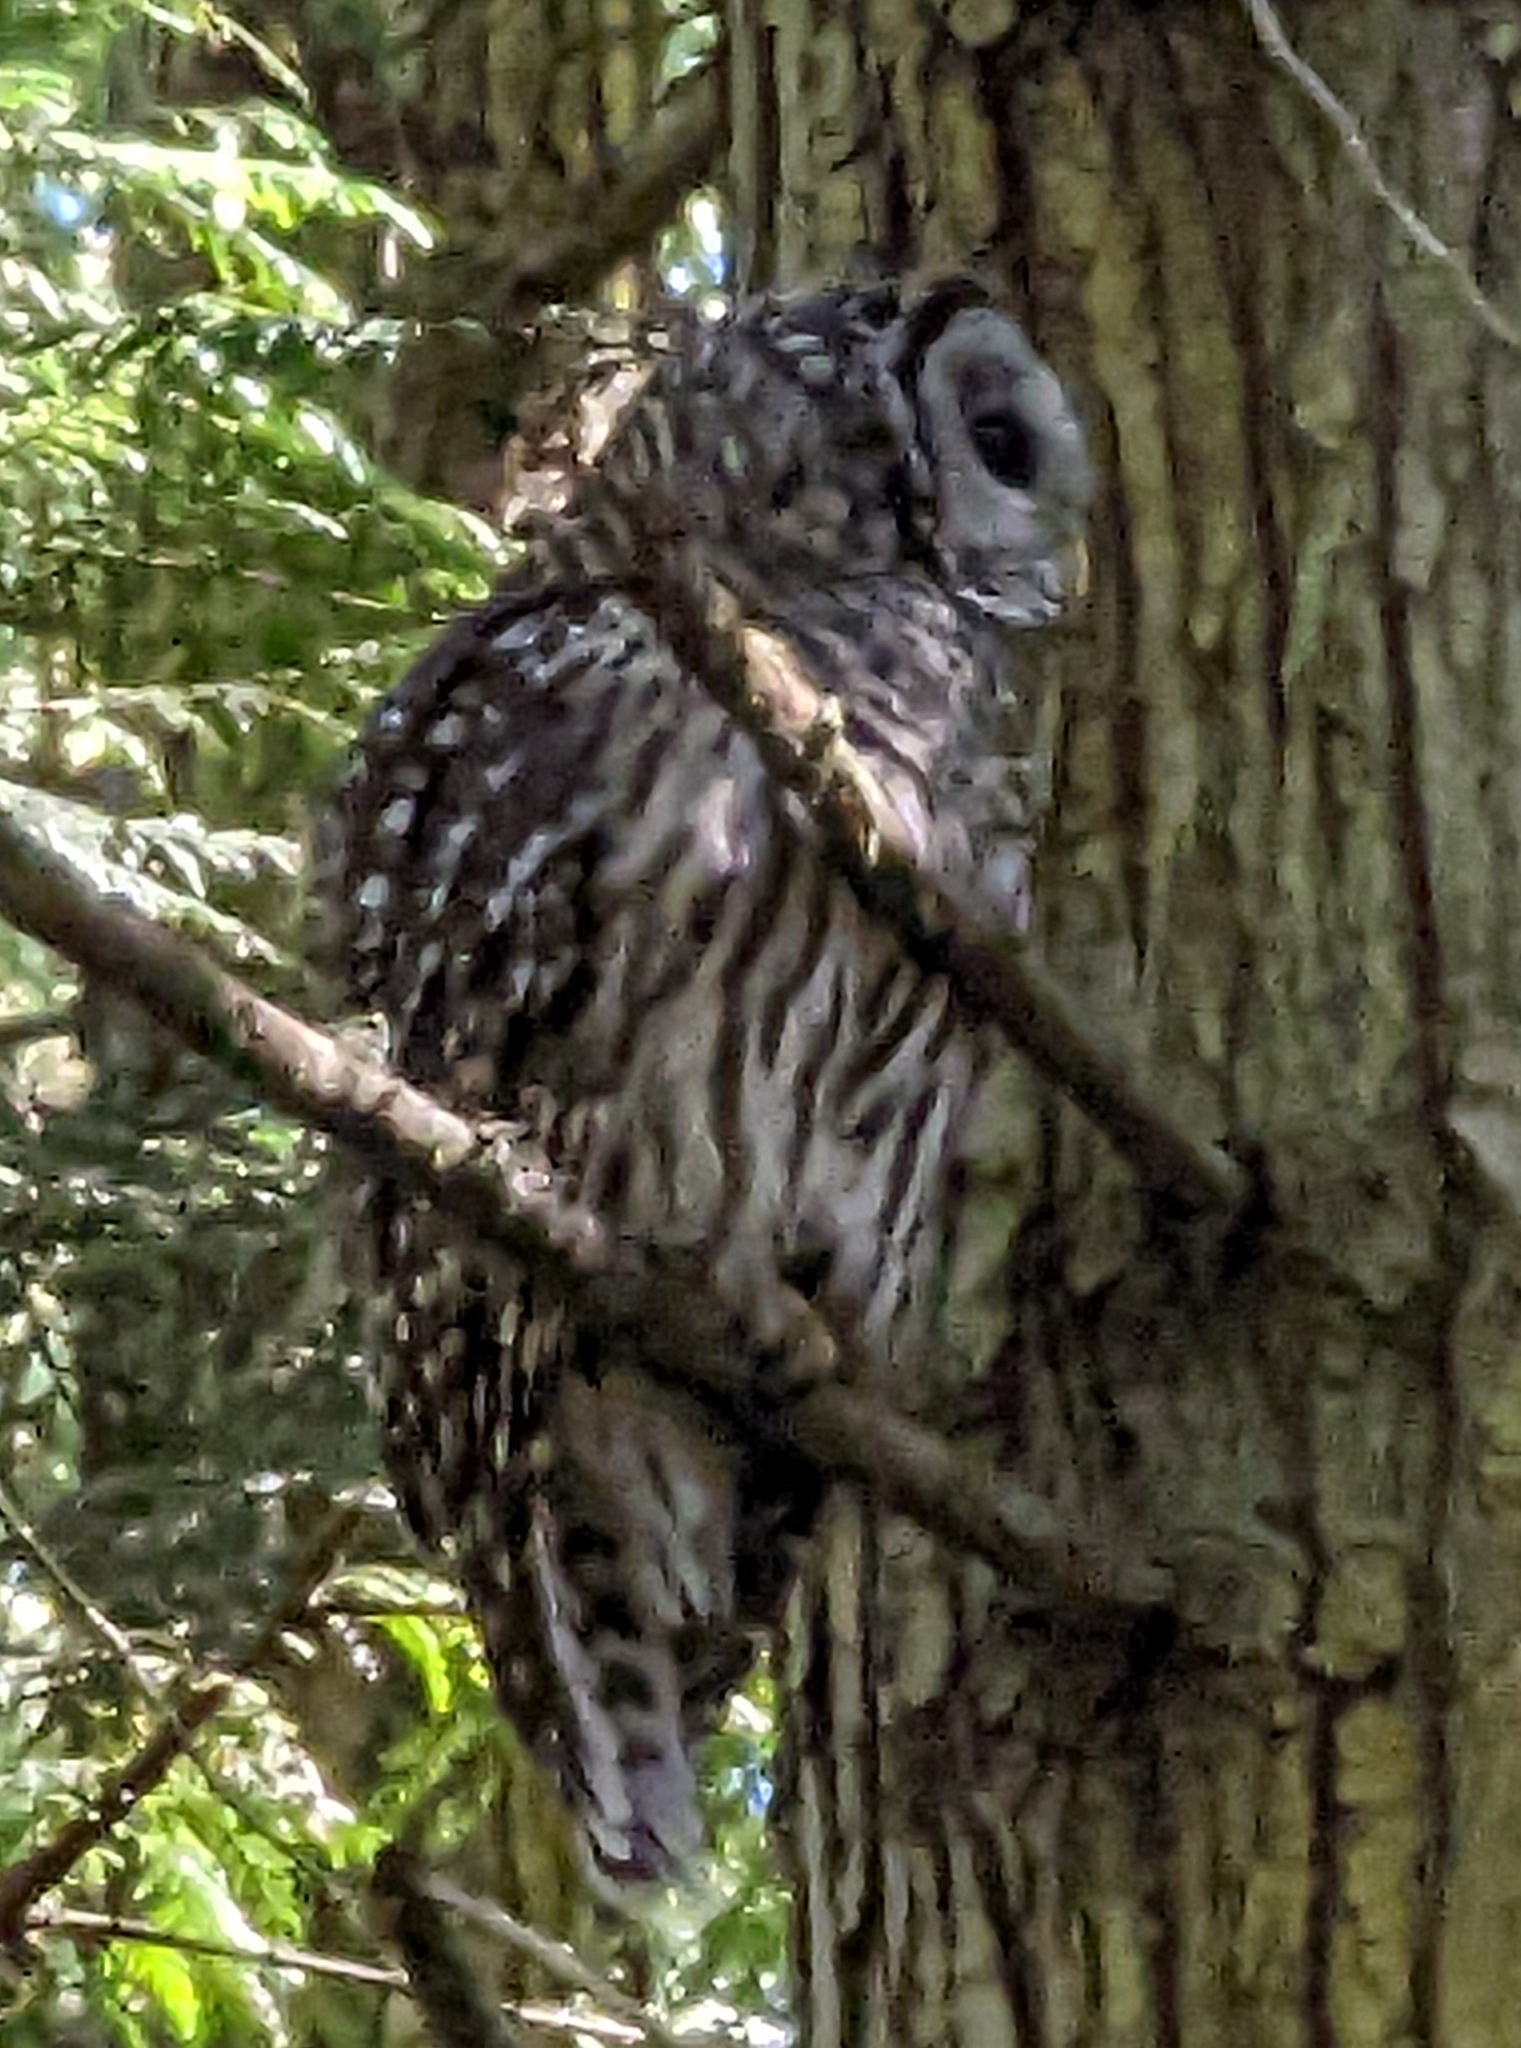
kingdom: Animalia
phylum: Chordata
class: Aves
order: Strigiformes
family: Strigidae
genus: Strix
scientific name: Strix varia
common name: Barred owl
